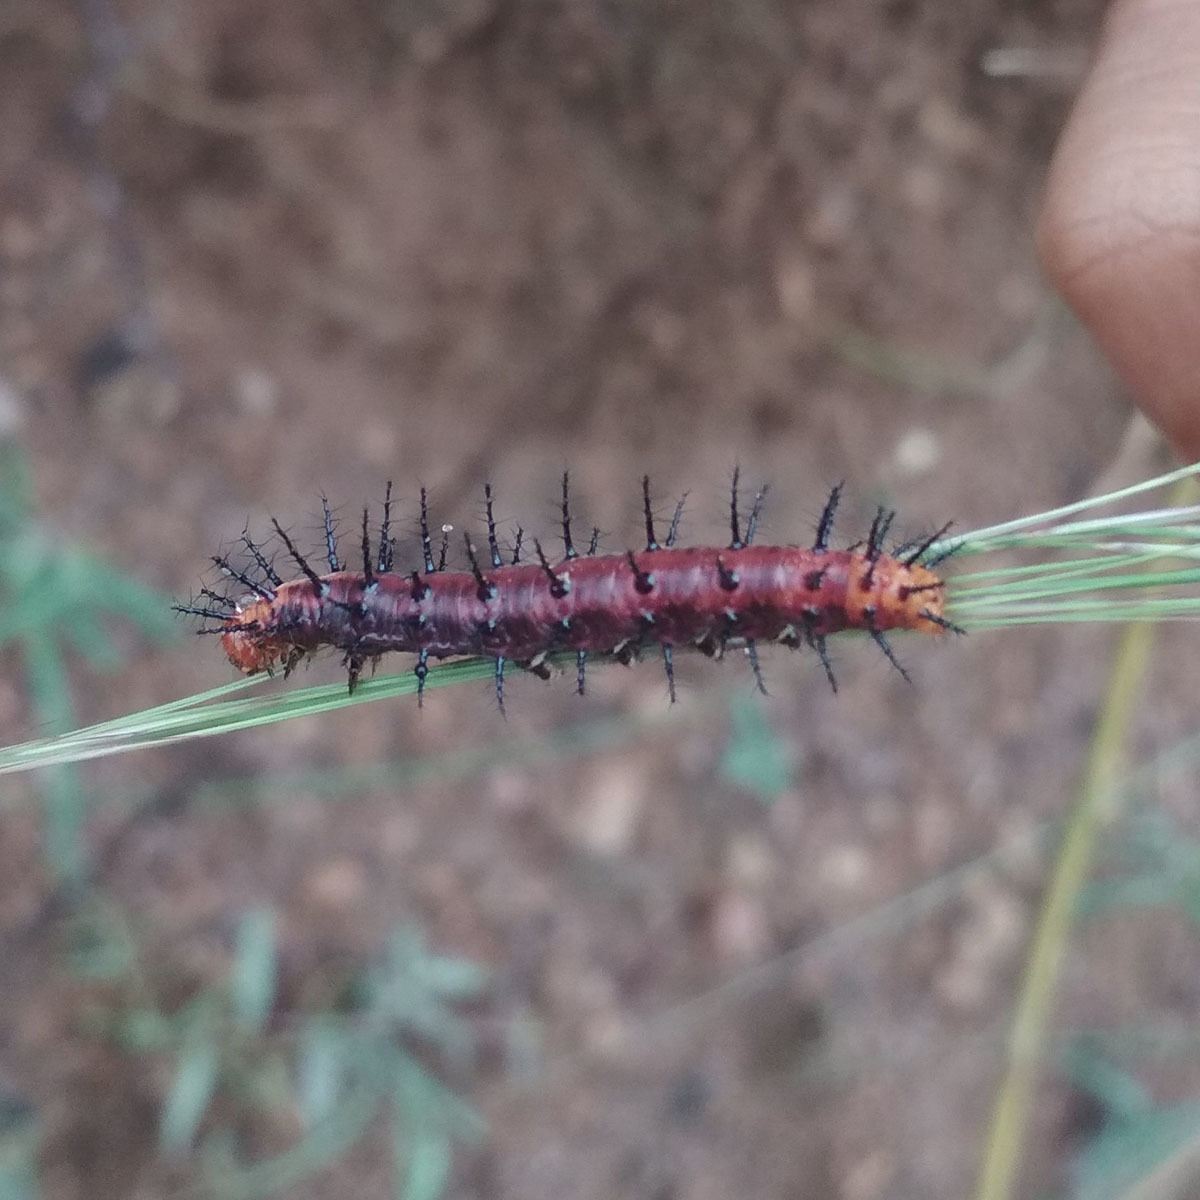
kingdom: Animalia
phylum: Arthropoda
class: Insecta
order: Lepidoptera
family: Nymphalidae
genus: Acraea
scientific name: Acraea terpsicore
